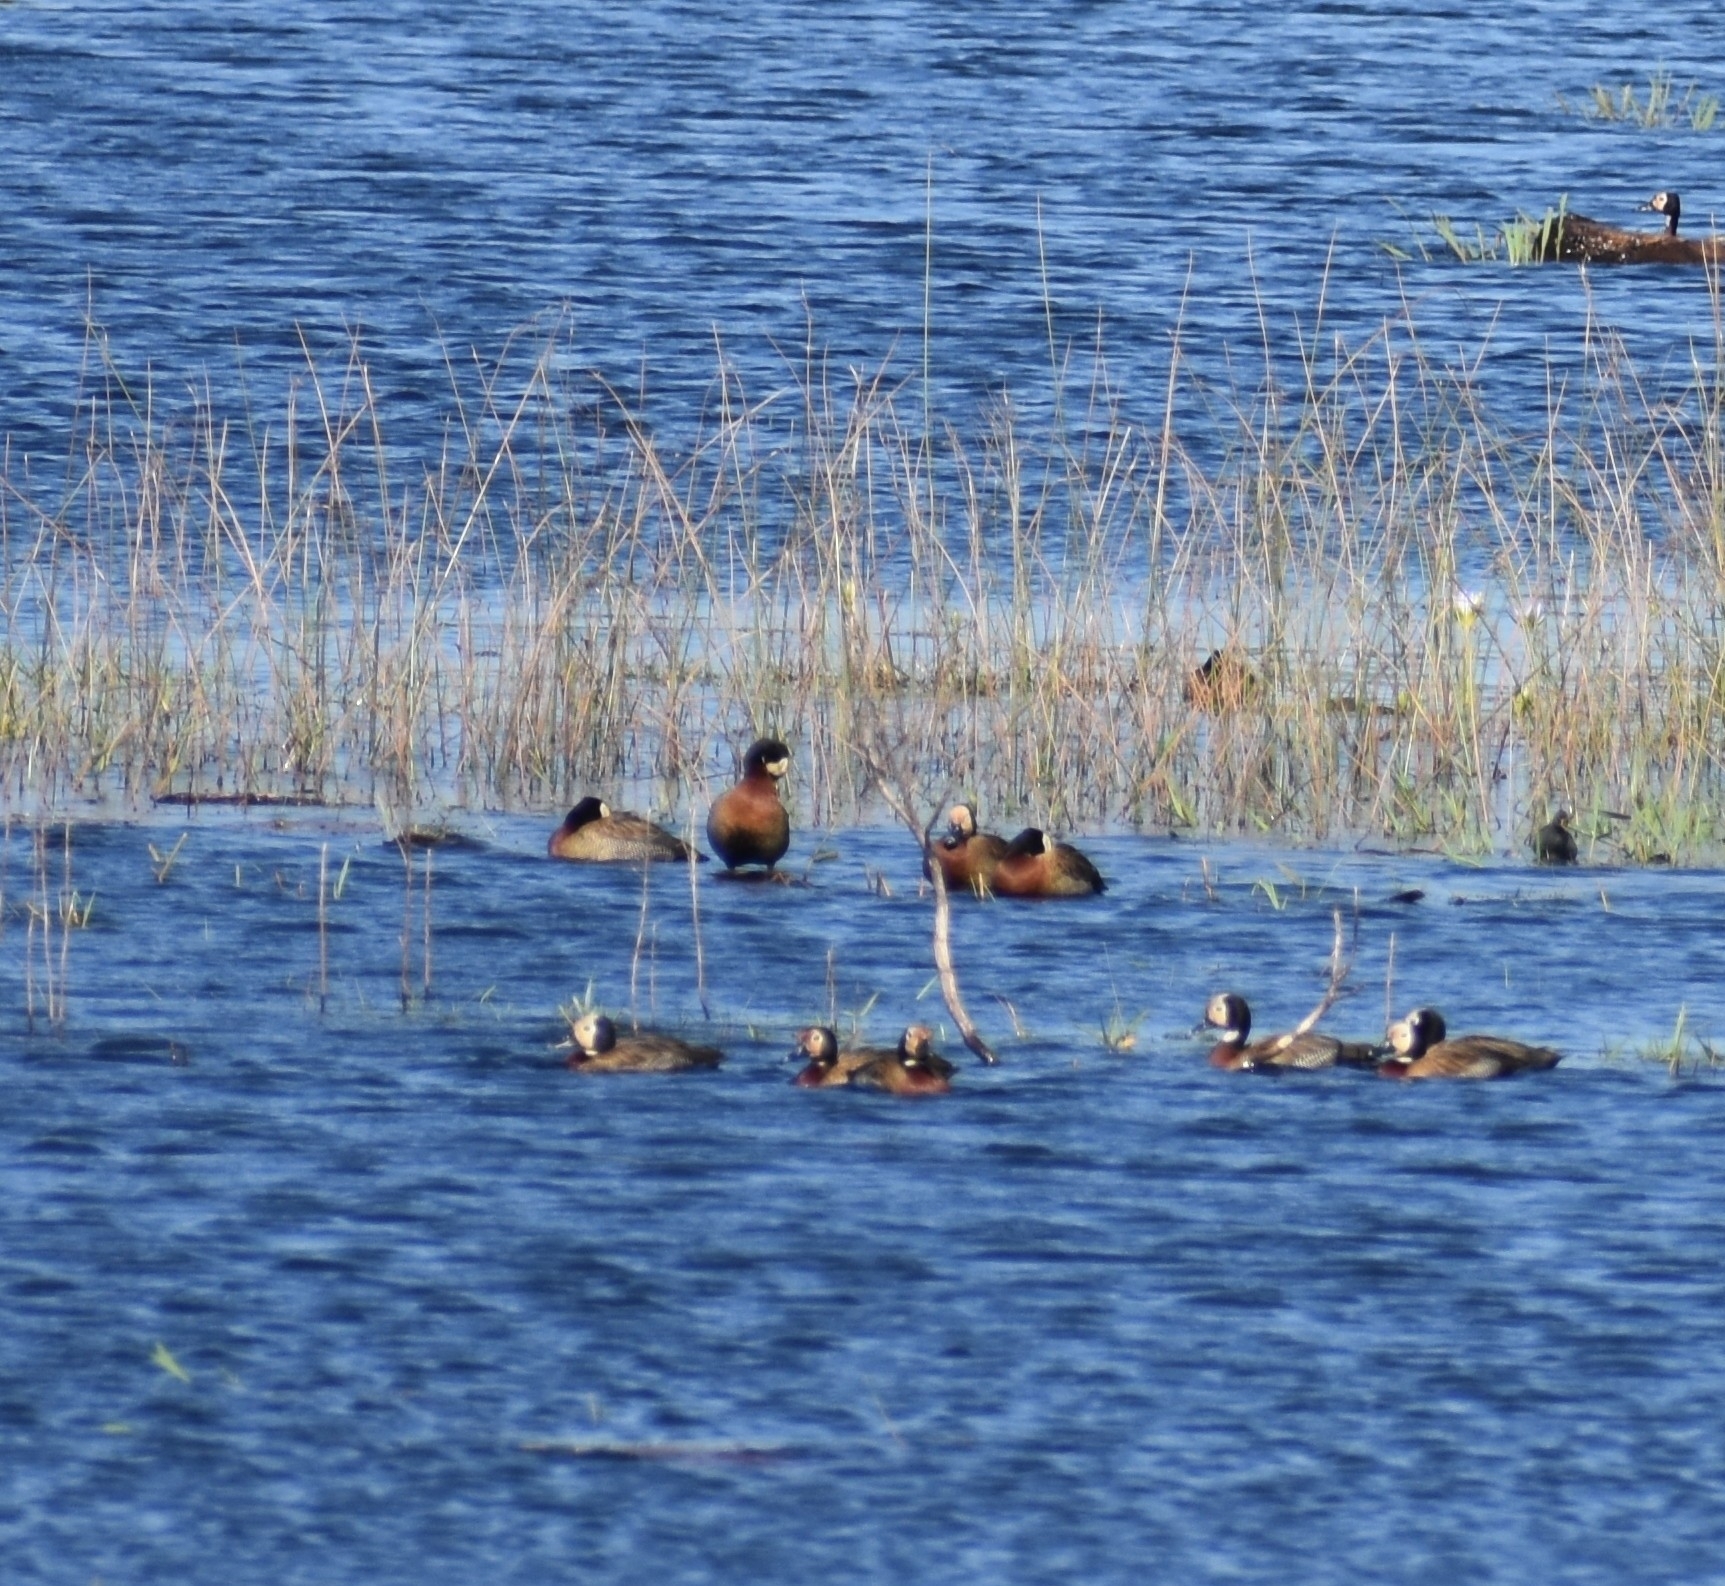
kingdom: Animalia
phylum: Chordata
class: Aves
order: Anseriformes
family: Anatidae
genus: Dendrocygna
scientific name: Dendrocygna viduata
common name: White-faced whistling duck
